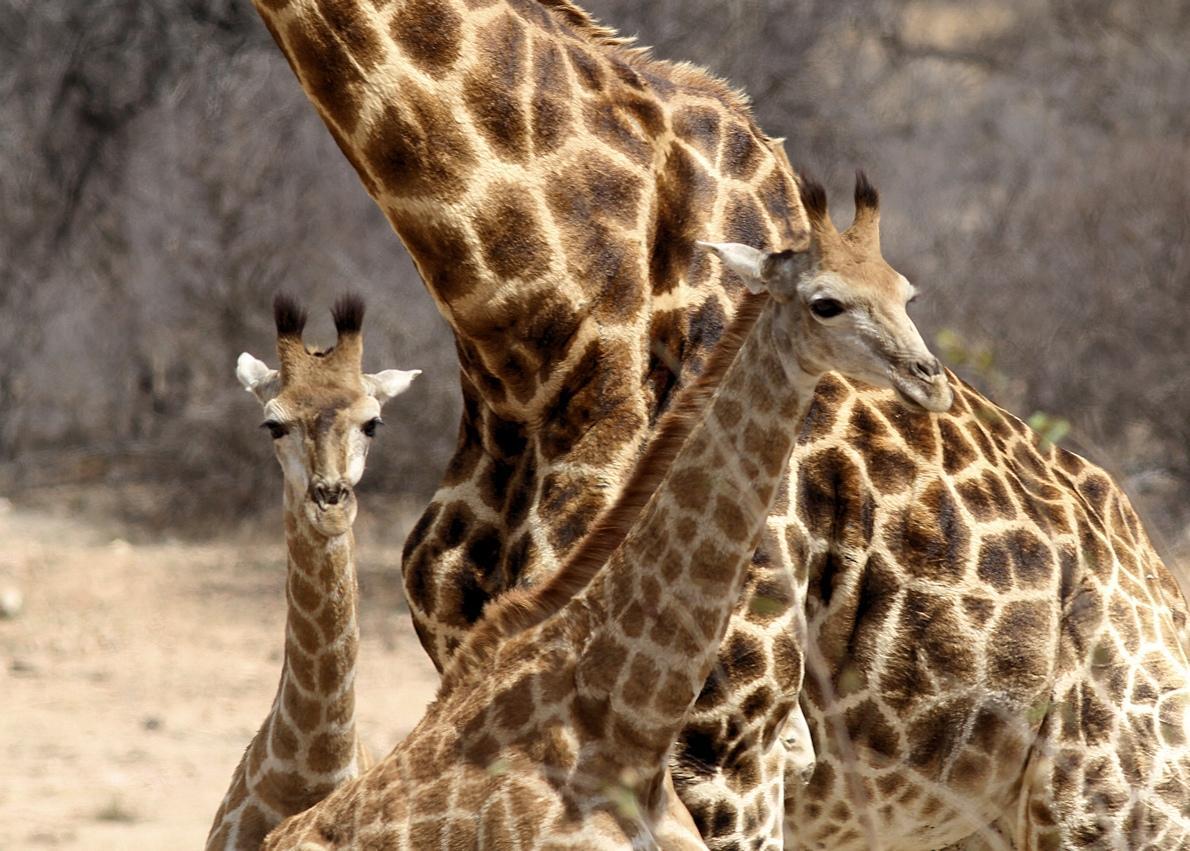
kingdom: Animalia
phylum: Chordata
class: Mammalia
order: Artiodactyla
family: Giraffidae
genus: Giraffa
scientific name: Giraffa giraffa
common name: Southern giraffe
